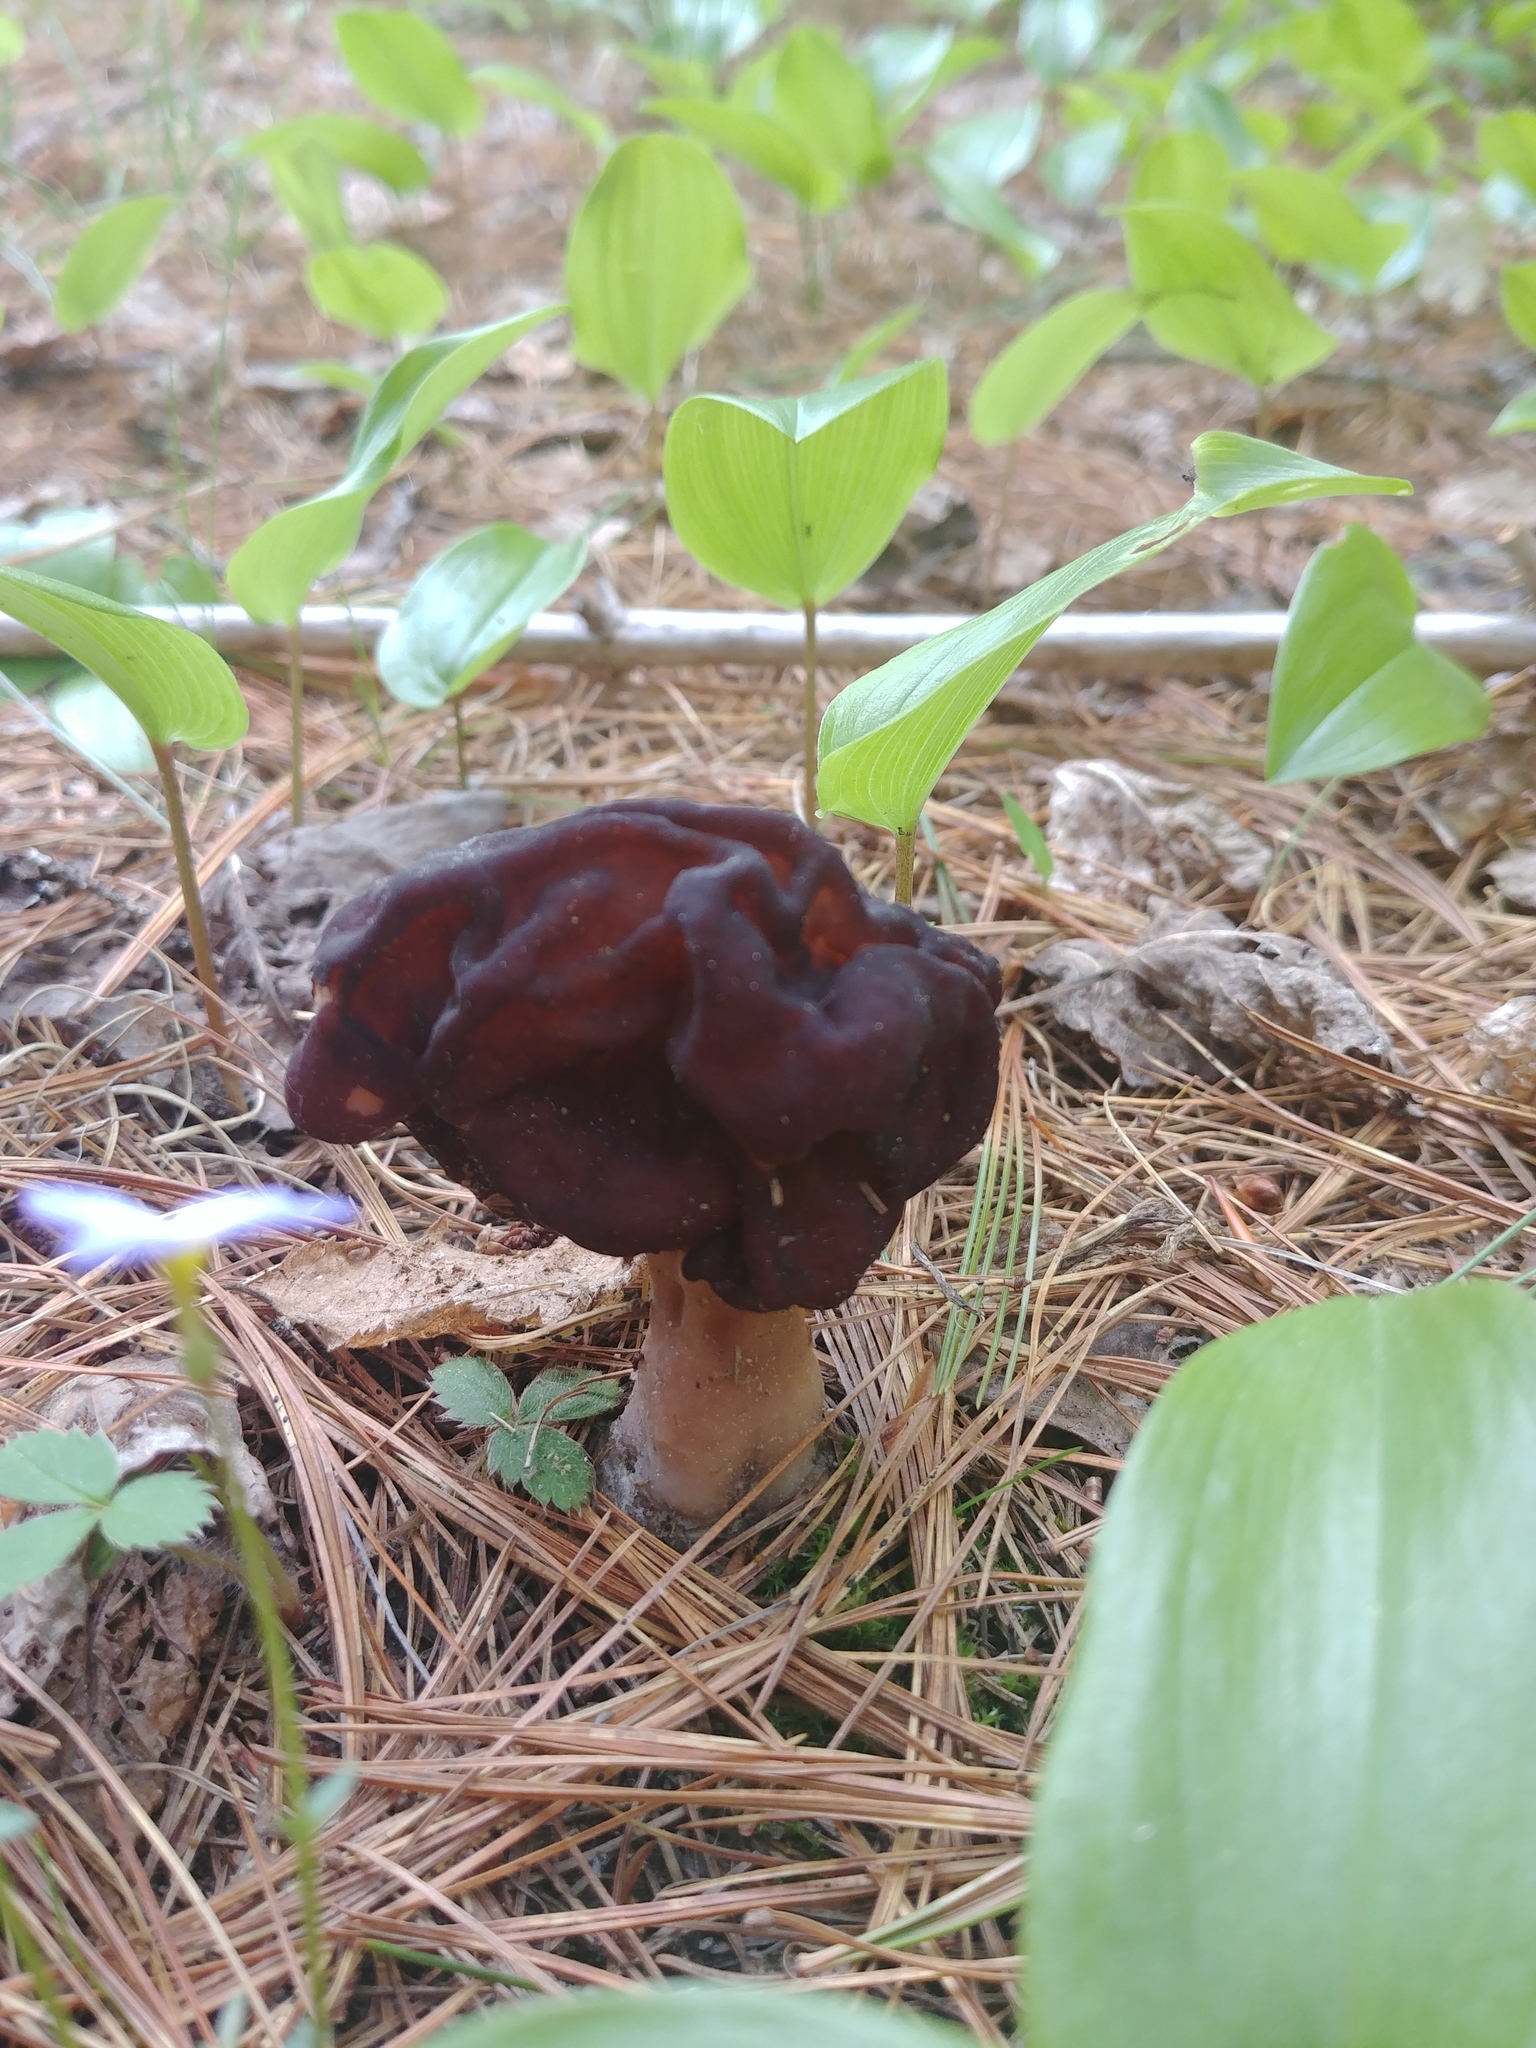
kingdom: Fungi
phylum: Ascomycota
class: Pezizomycetes
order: Pezizales
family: Discinaceae
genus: Gyromitra
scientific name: Gyromitra esculenta
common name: False morel
